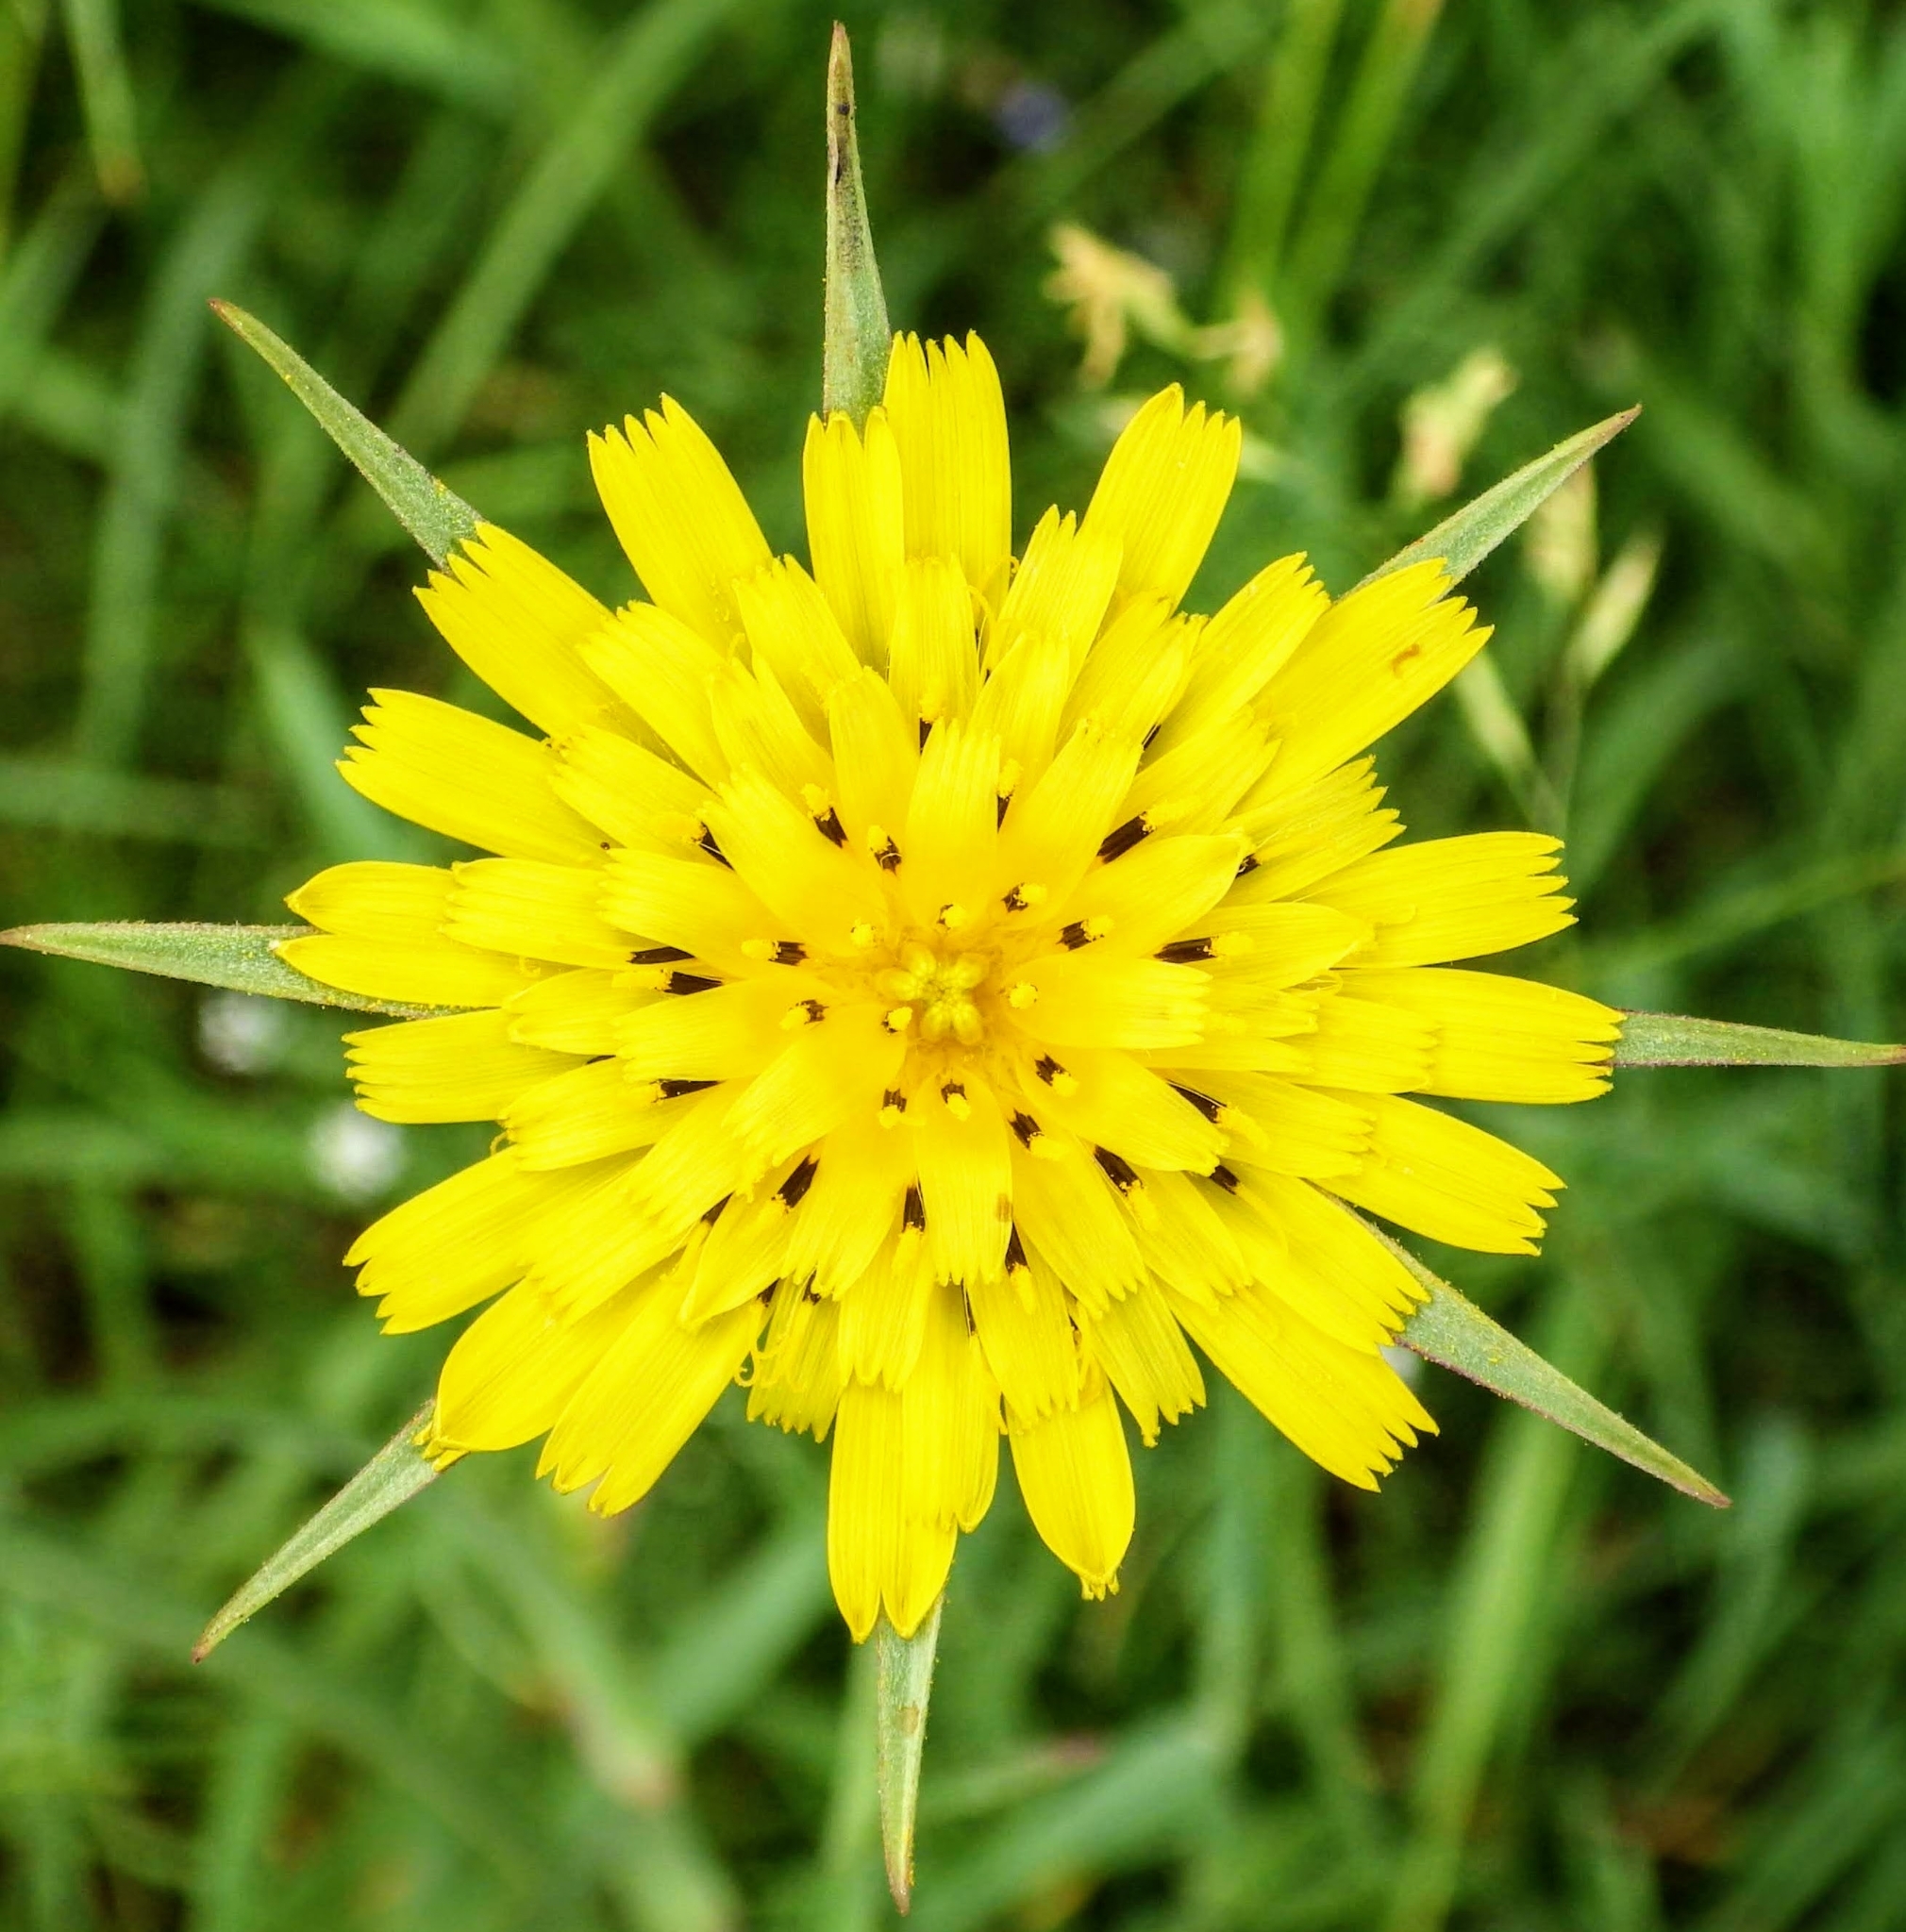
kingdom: Plantae
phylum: Tracheophyta
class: Magnoliopsida
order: Asterales
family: Asteraceae
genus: Tragopogon
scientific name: Tragopogon pratensis
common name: Goat's-beard
